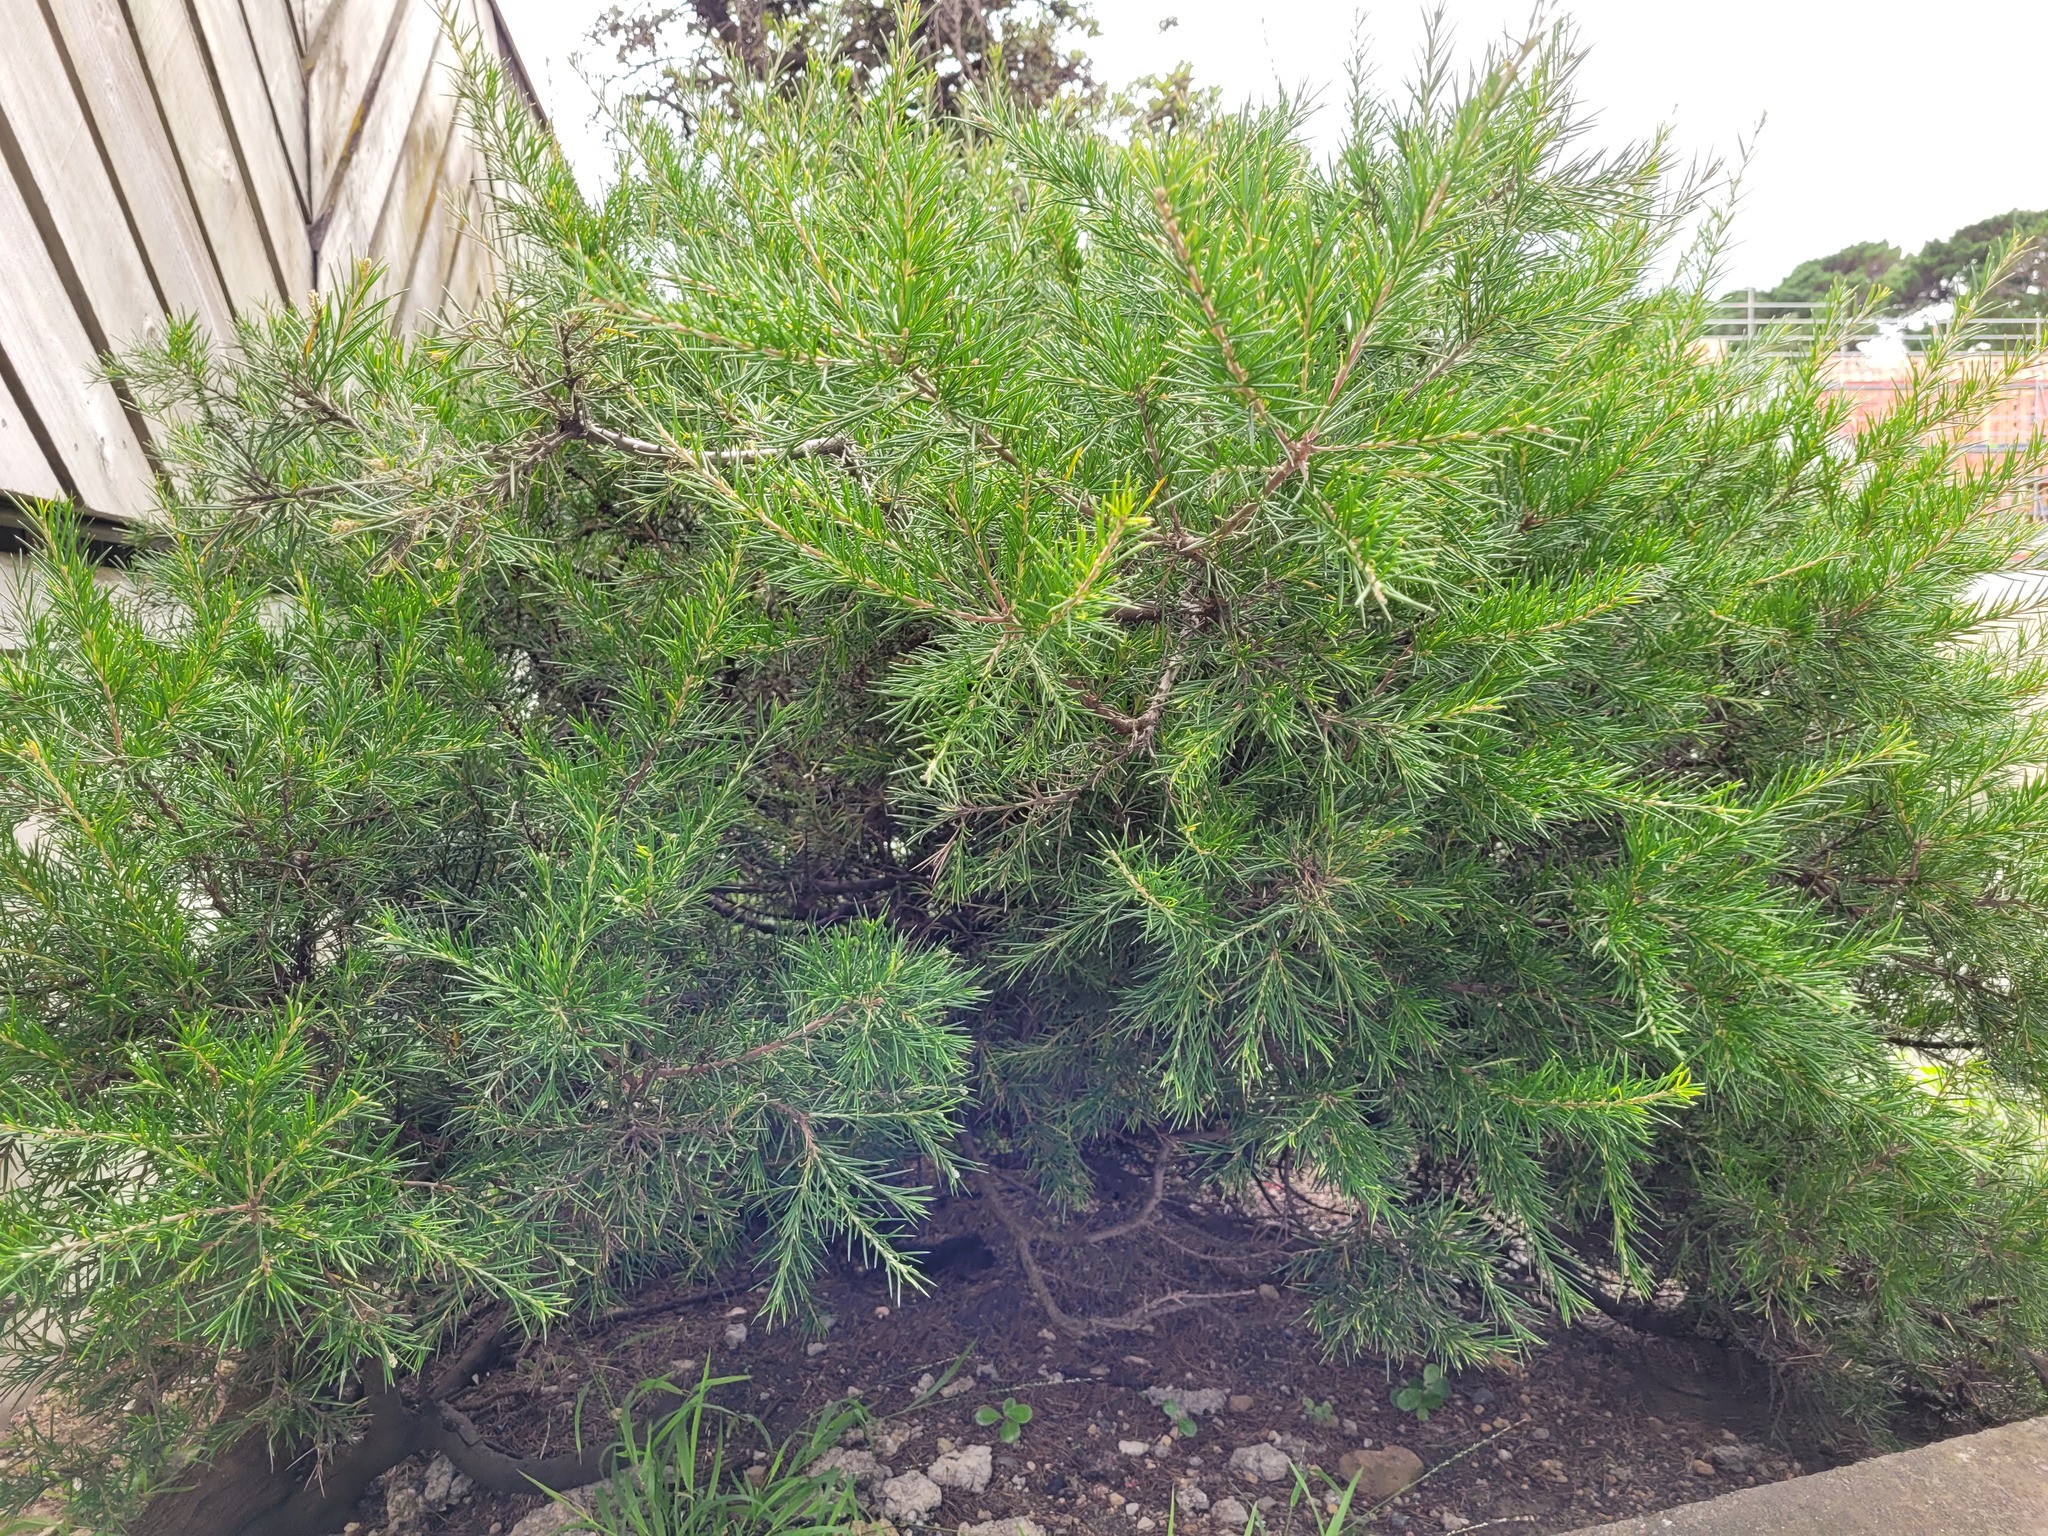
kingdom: Plantae
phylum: Tracheophyta
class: Magnoliopsida
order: Proteales
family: Proteaceae
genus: Hakea
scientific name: Hakea sericea
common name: Needle bush
